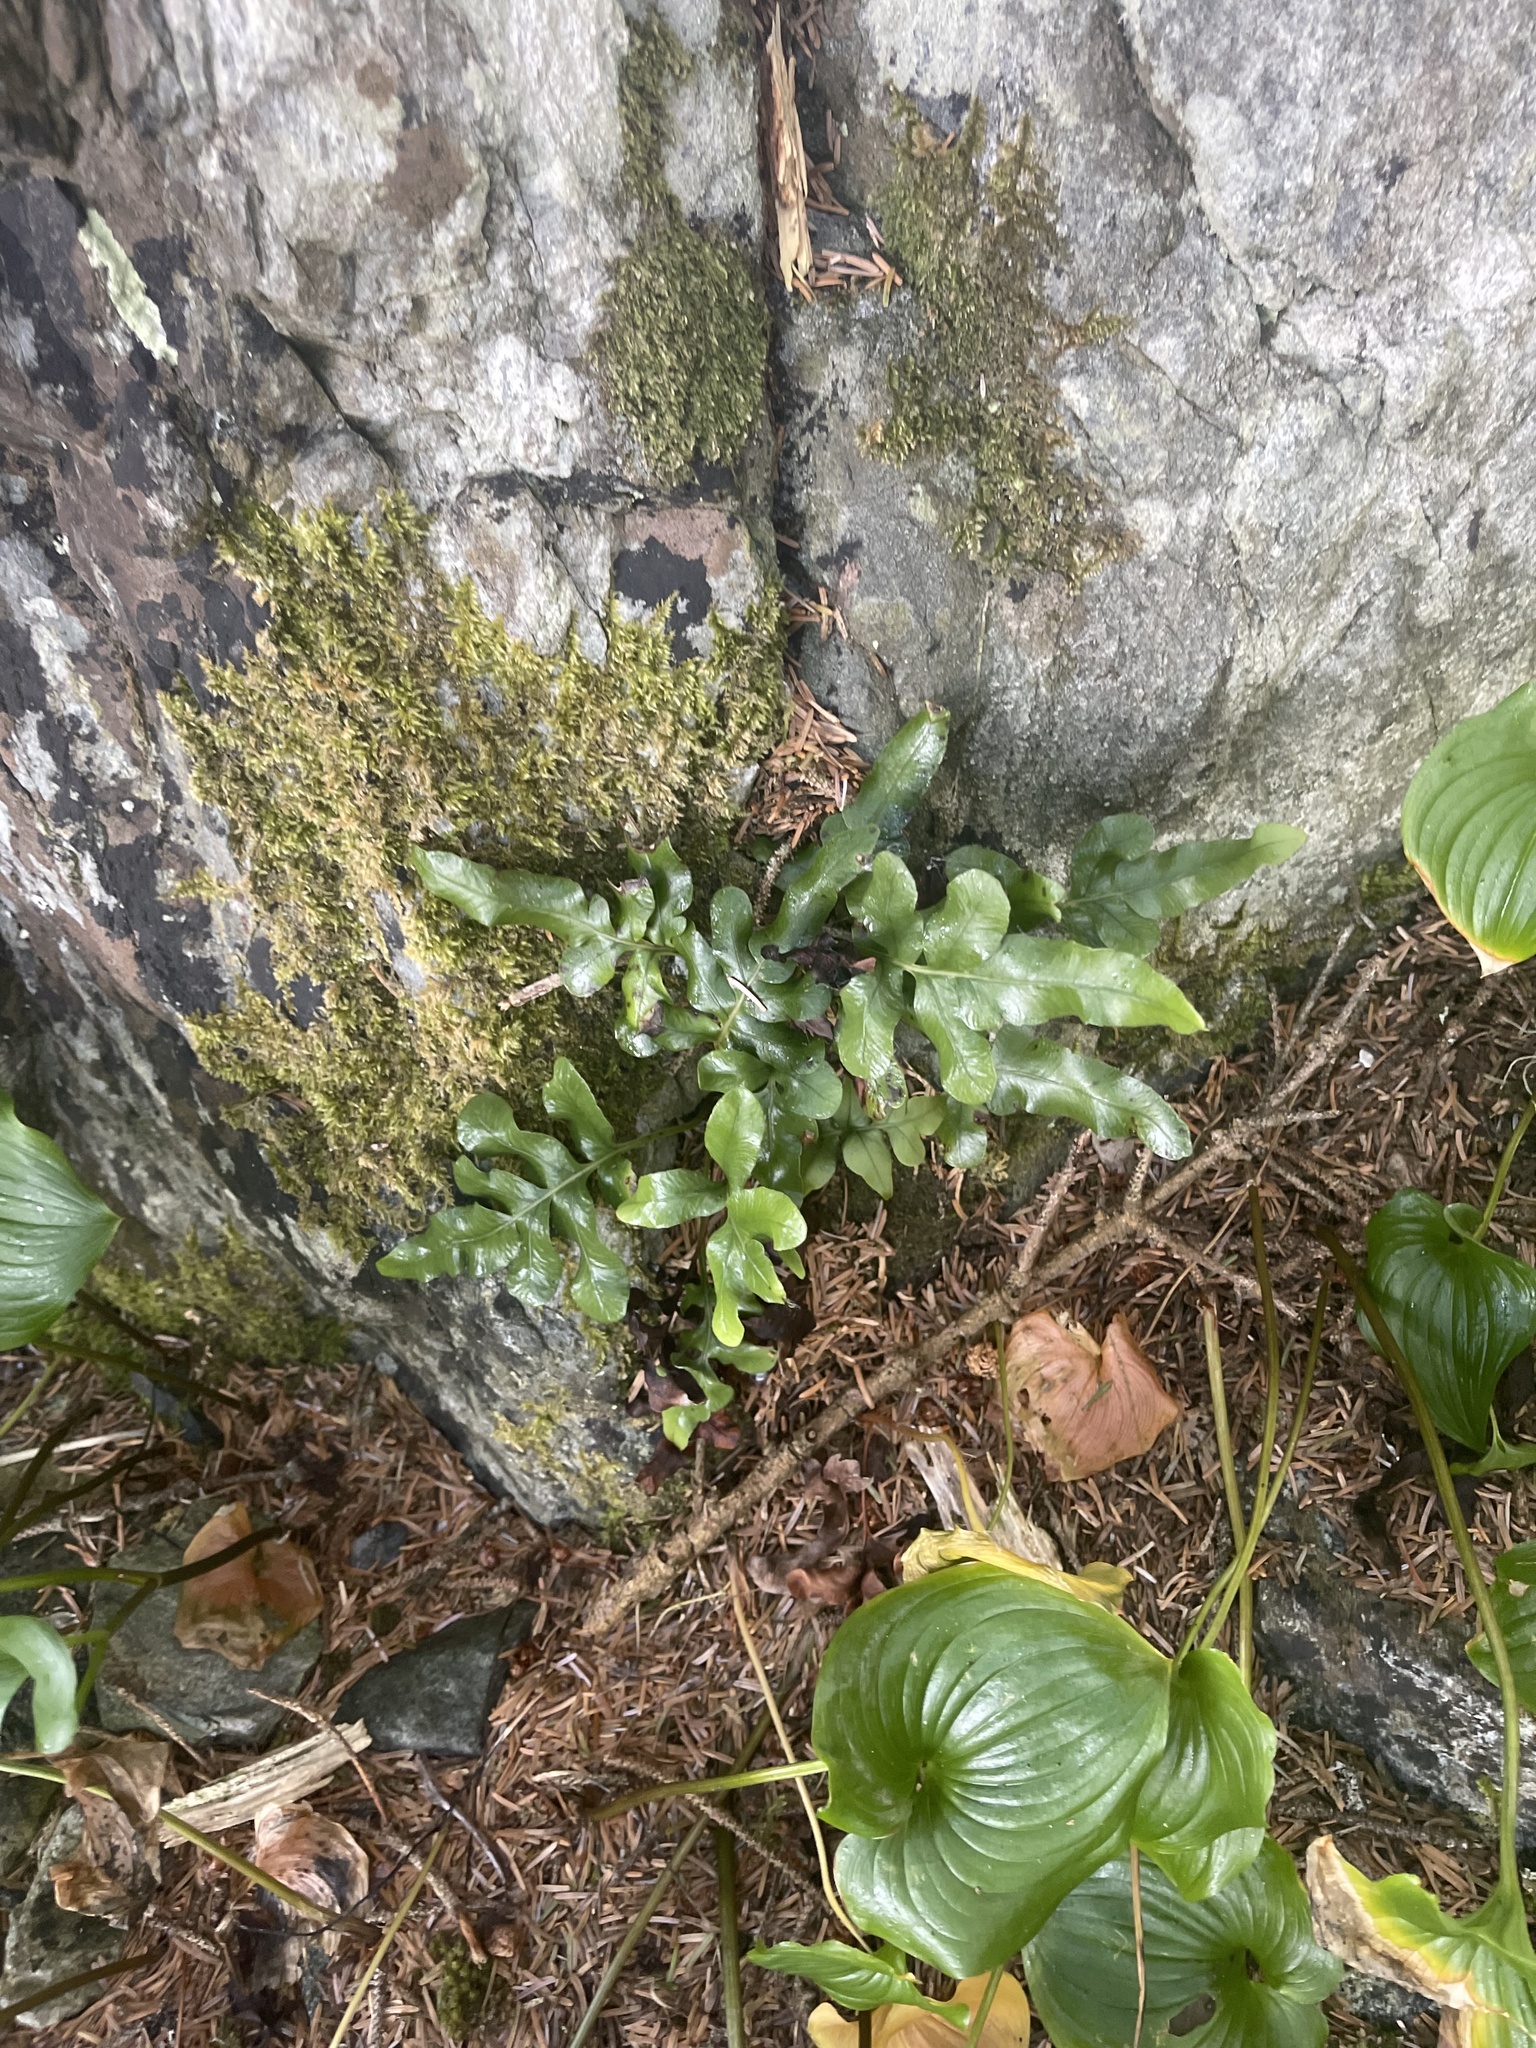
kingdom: Plantae
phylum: Tracheophyta
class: Polypodiopsida
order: Polypodiales
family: Polypodiaceae
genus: Polypodium
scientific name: Polypodium scouleri
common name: Scouler's polypody
